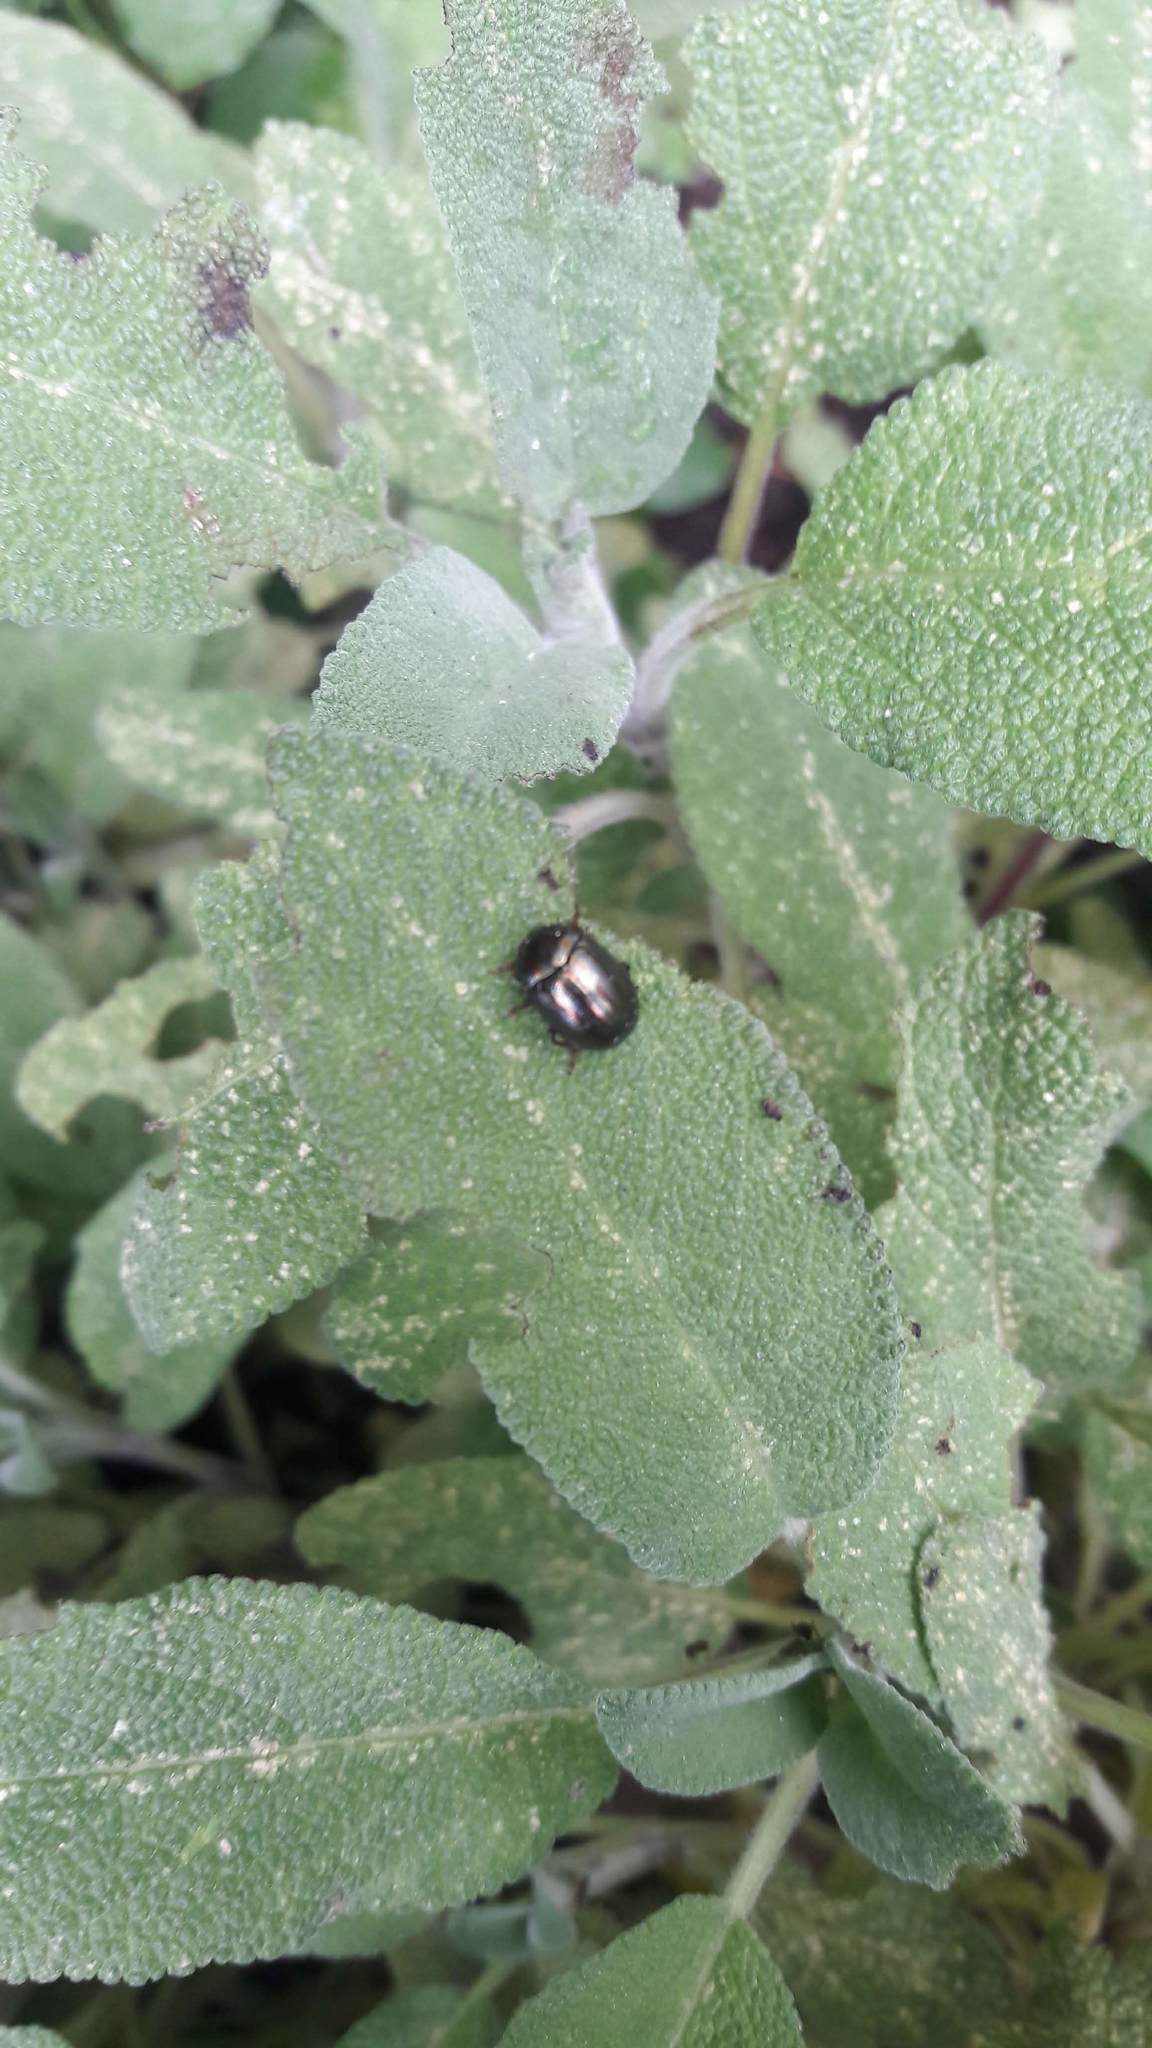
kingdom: Animalia
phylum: Arthropoda
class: Insecta
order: Coleoptera
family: Chrysomelidae
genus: Chrysolina
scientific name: Chrysolina americana
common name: Rosemary beetle
